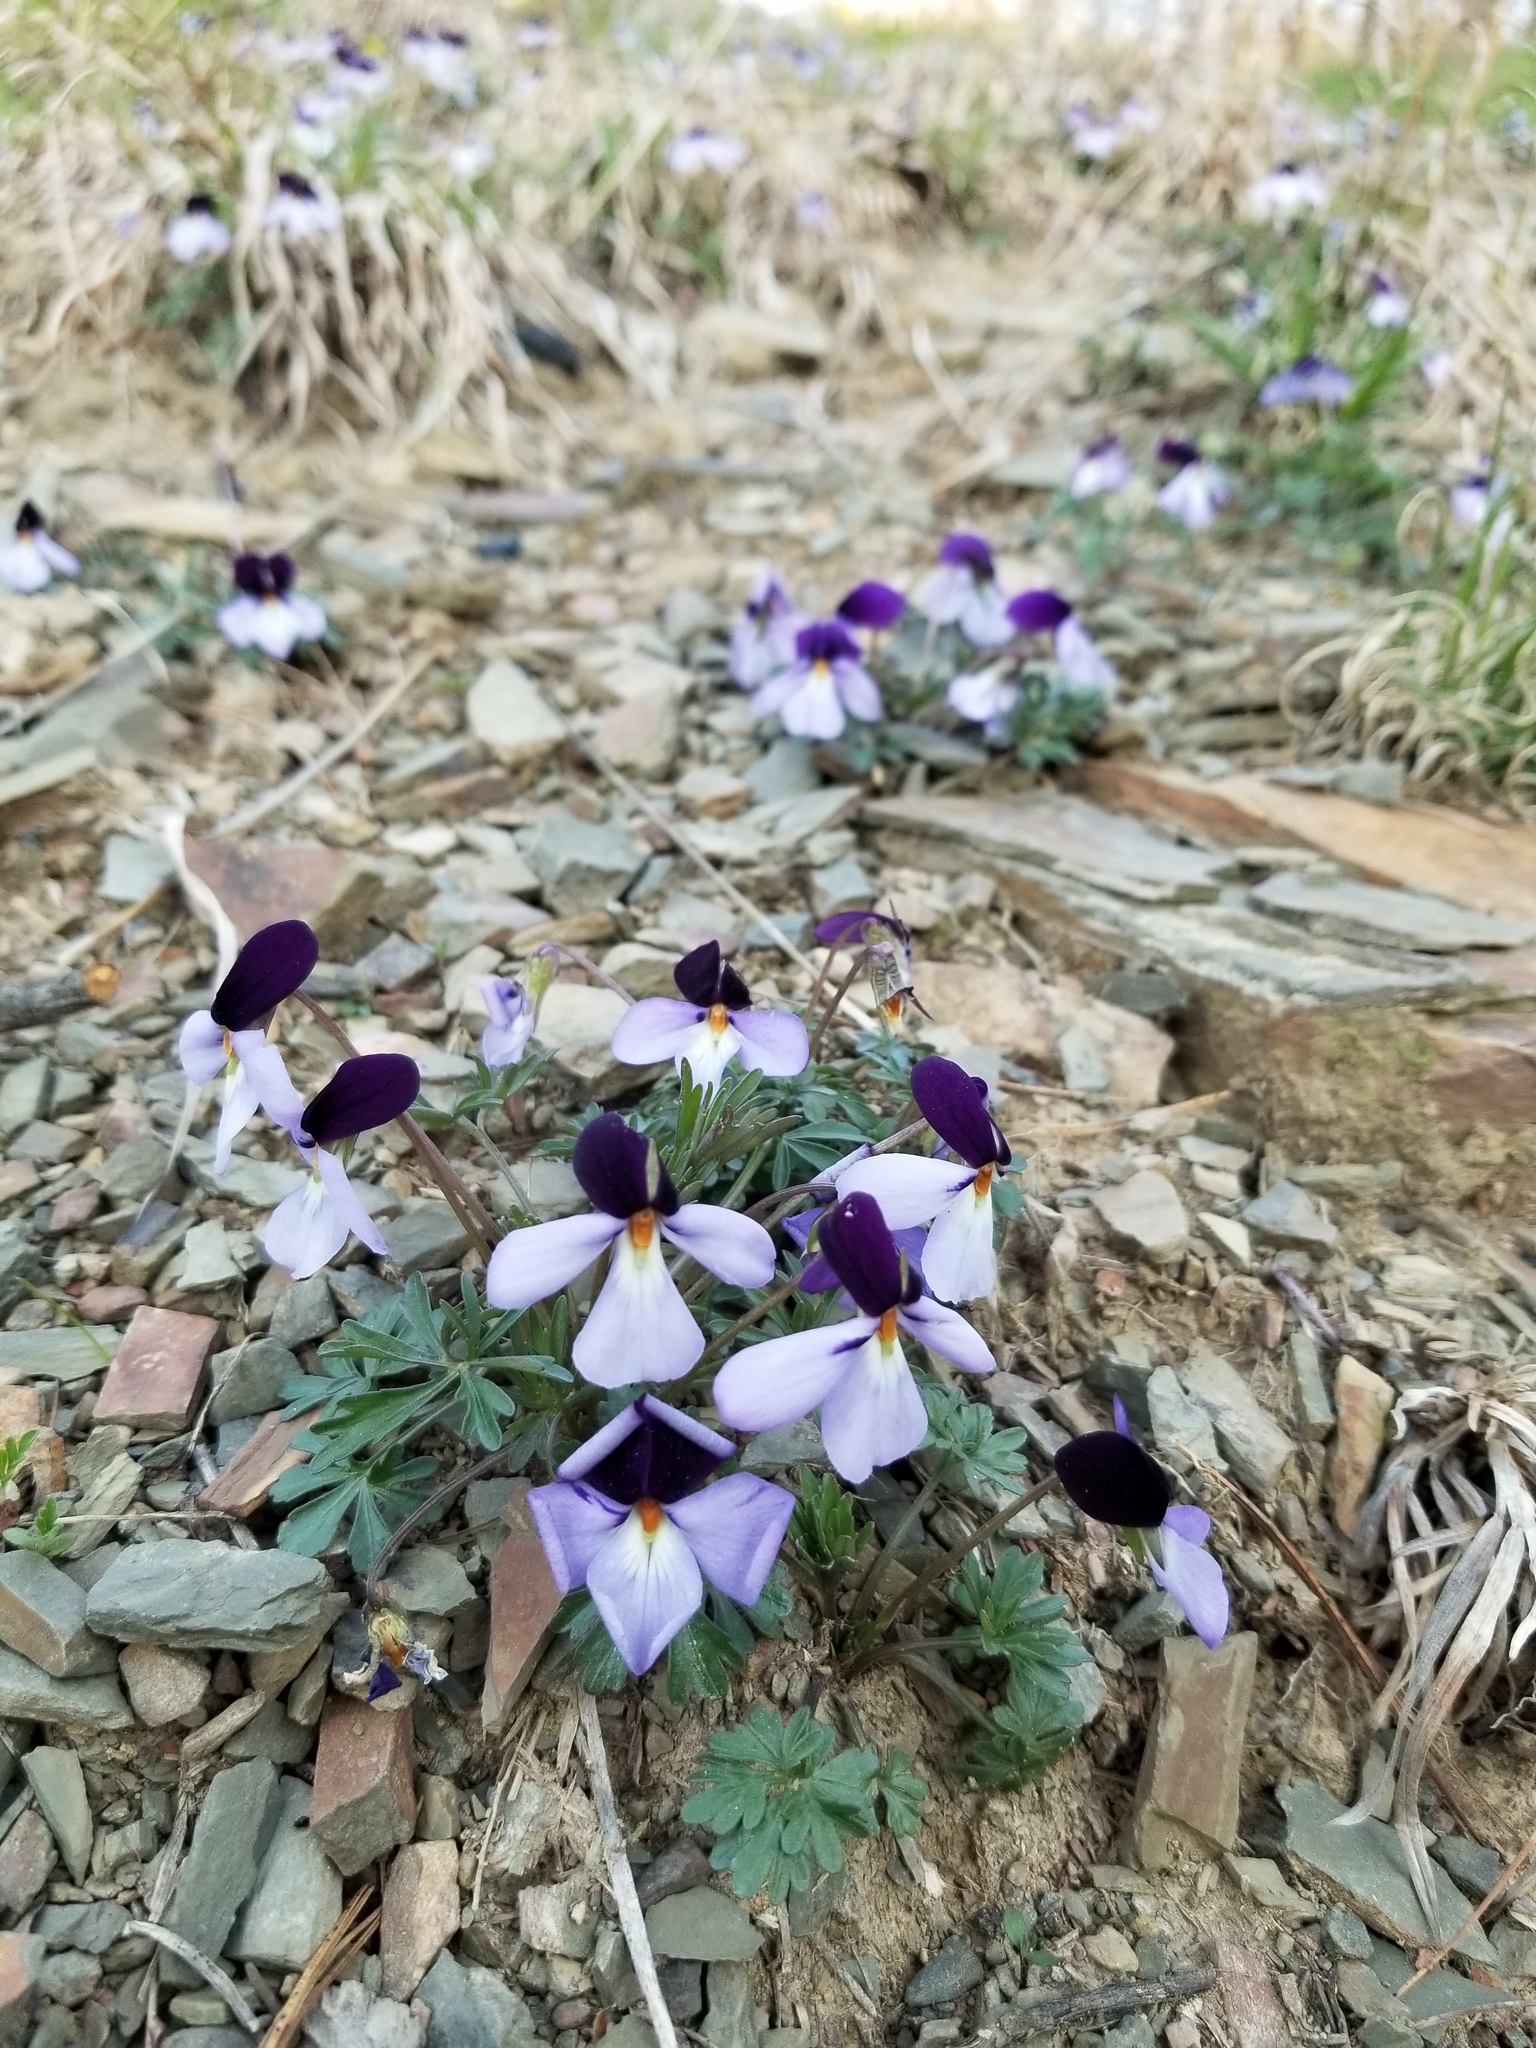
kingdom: Plantae
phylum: Tracheophyta
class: Magnoliopsida
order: Malpighiales
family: Violaceae
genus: Viola
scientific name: Viola pedata
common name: Pansy violet
